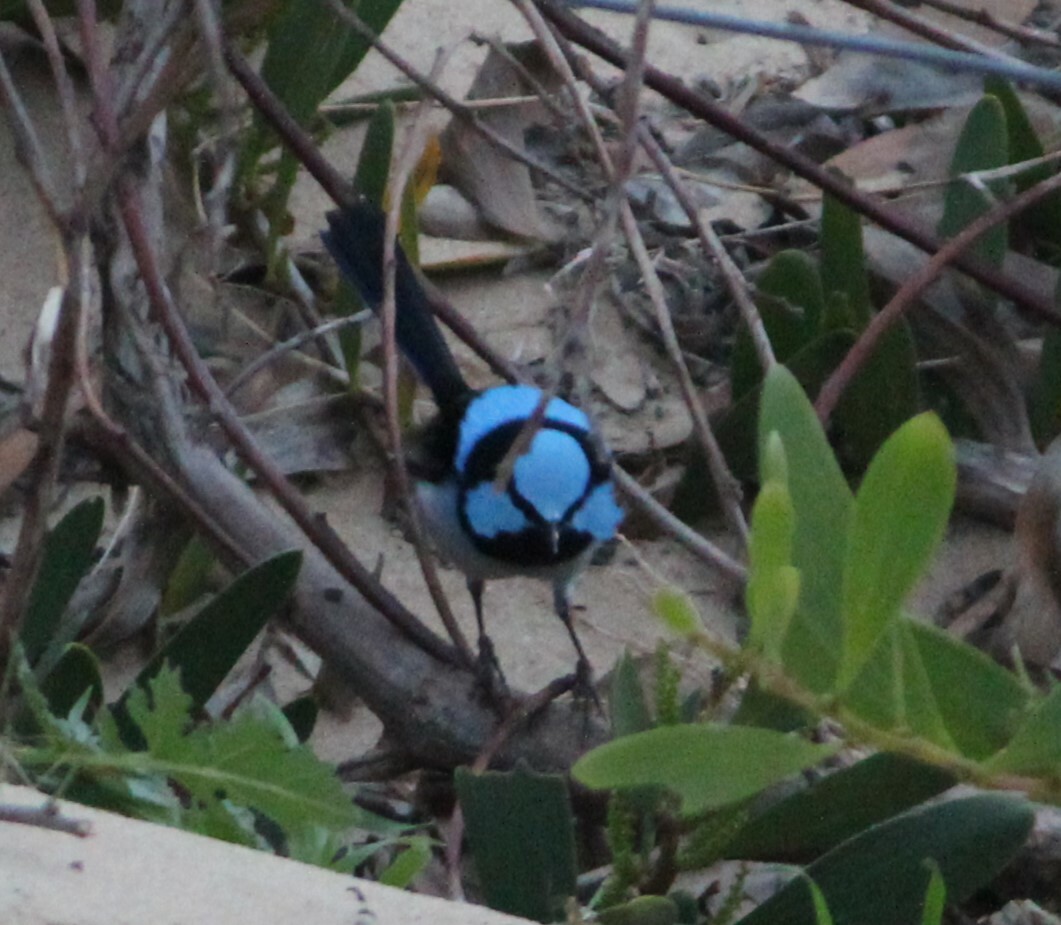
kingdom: Animalia
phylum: Chordata
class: Aves
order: Passeriformes
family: Maluridae
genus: Malurus
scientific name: Malurus cyaneus
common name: Superb fairywren
